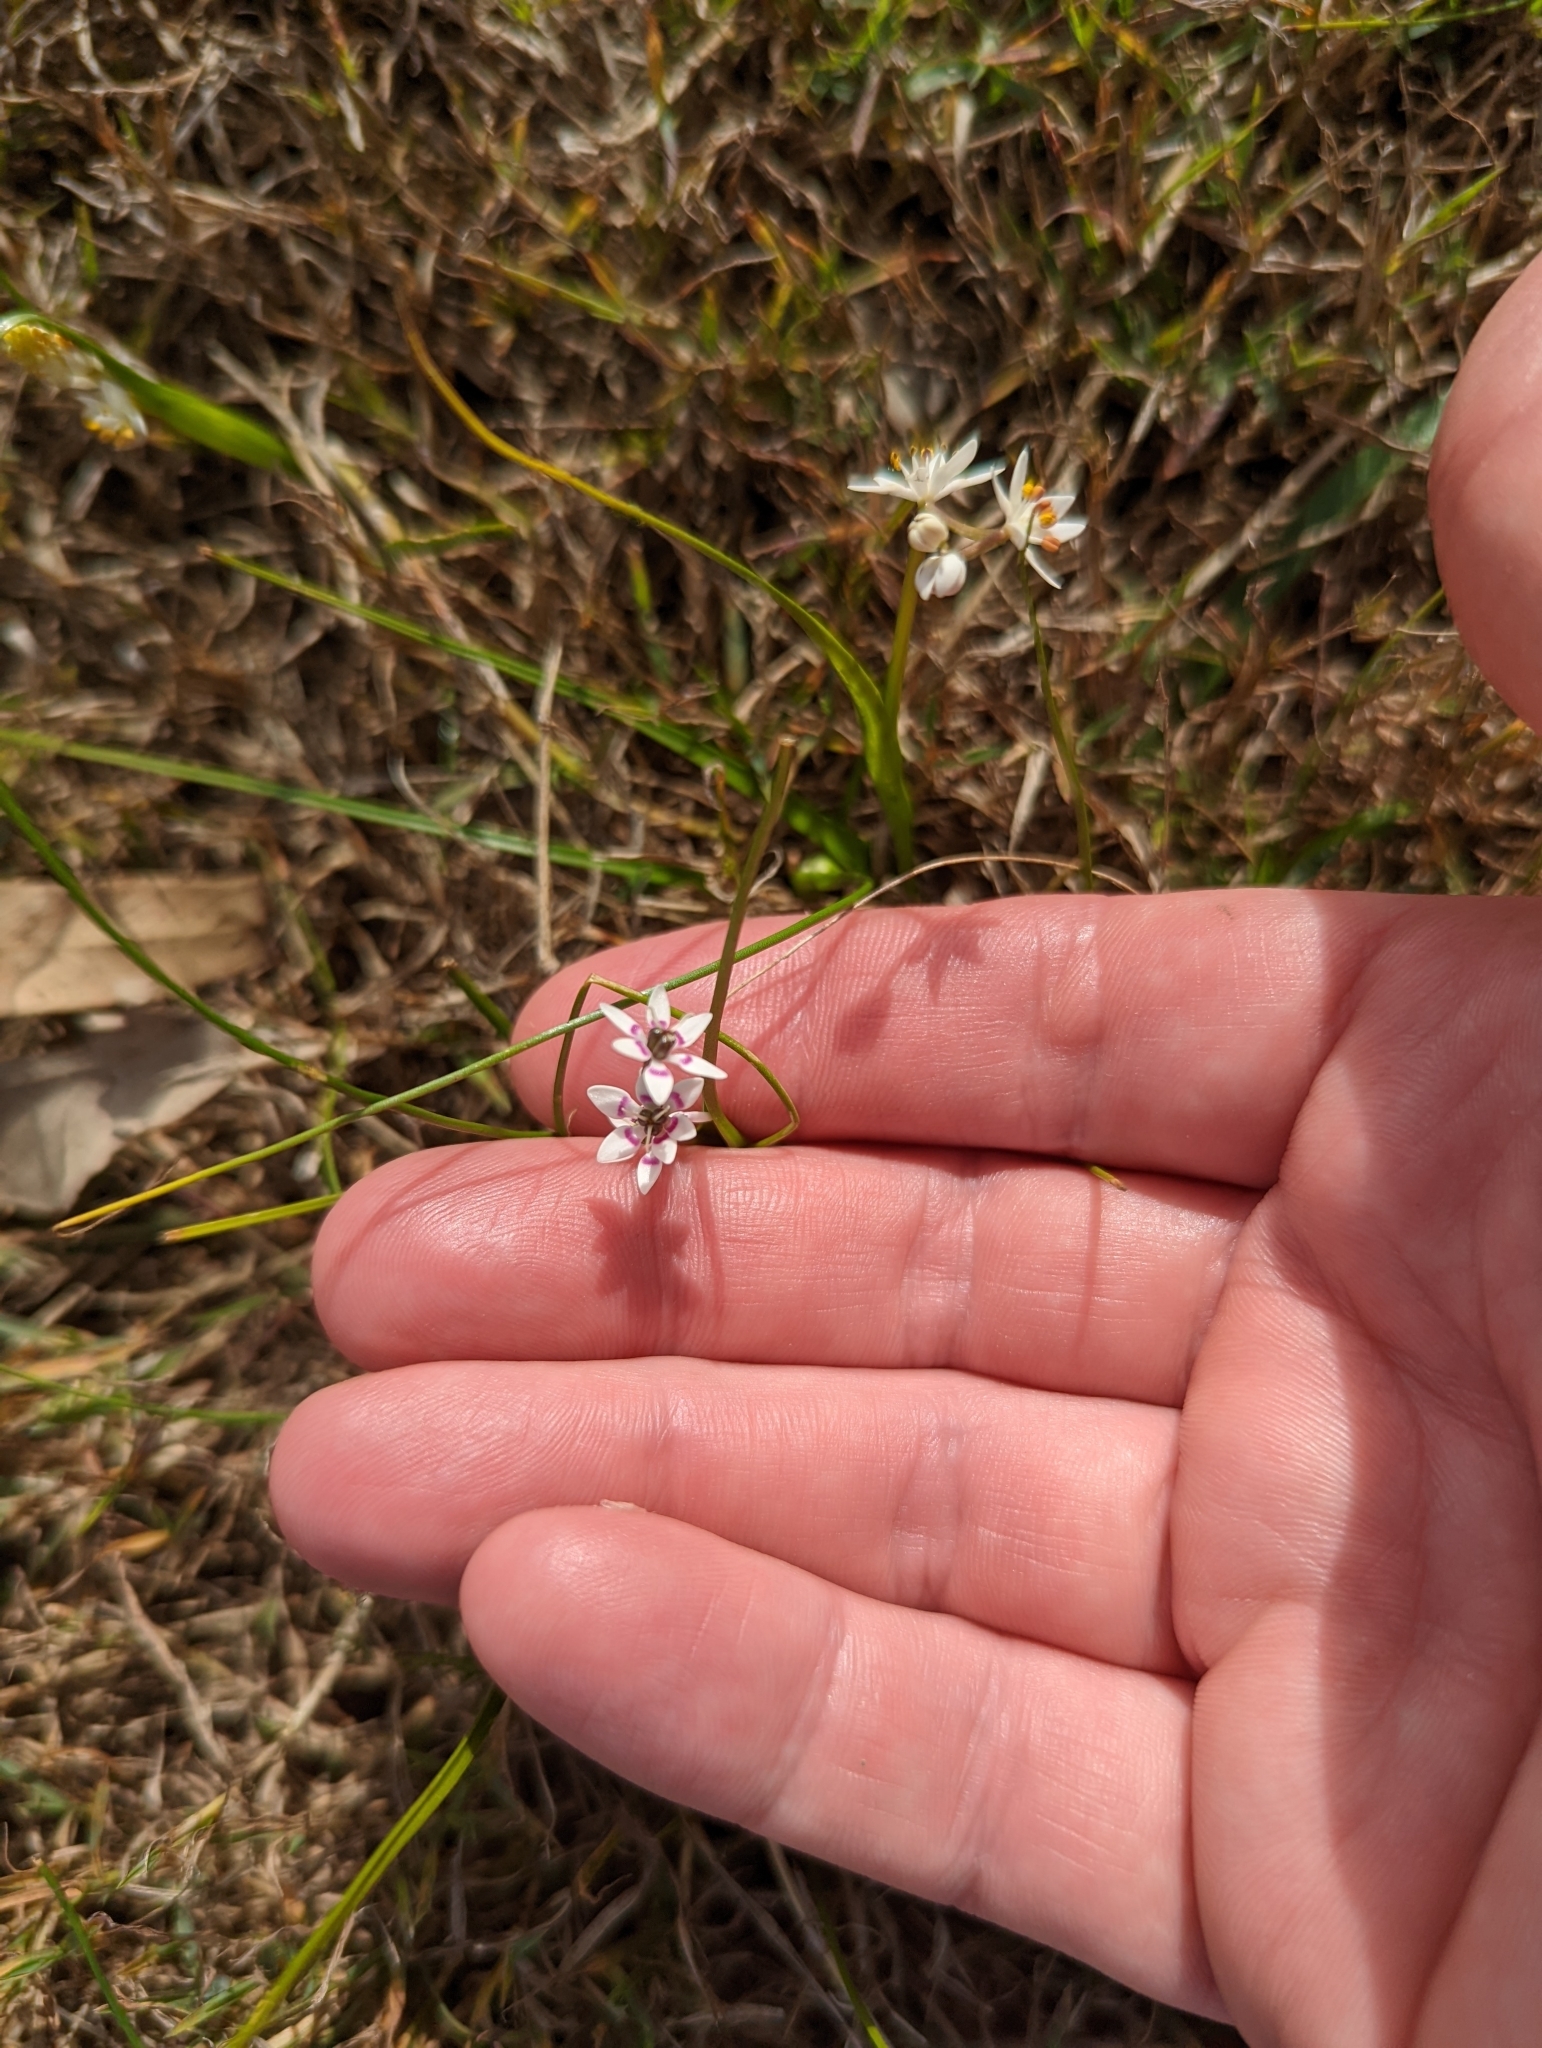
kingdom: Plantae
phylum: Tracheophyta
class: Liliopsida
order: Liliales
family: Colchicaceae
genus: Wurmbea
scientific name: Wurmbea dioica
